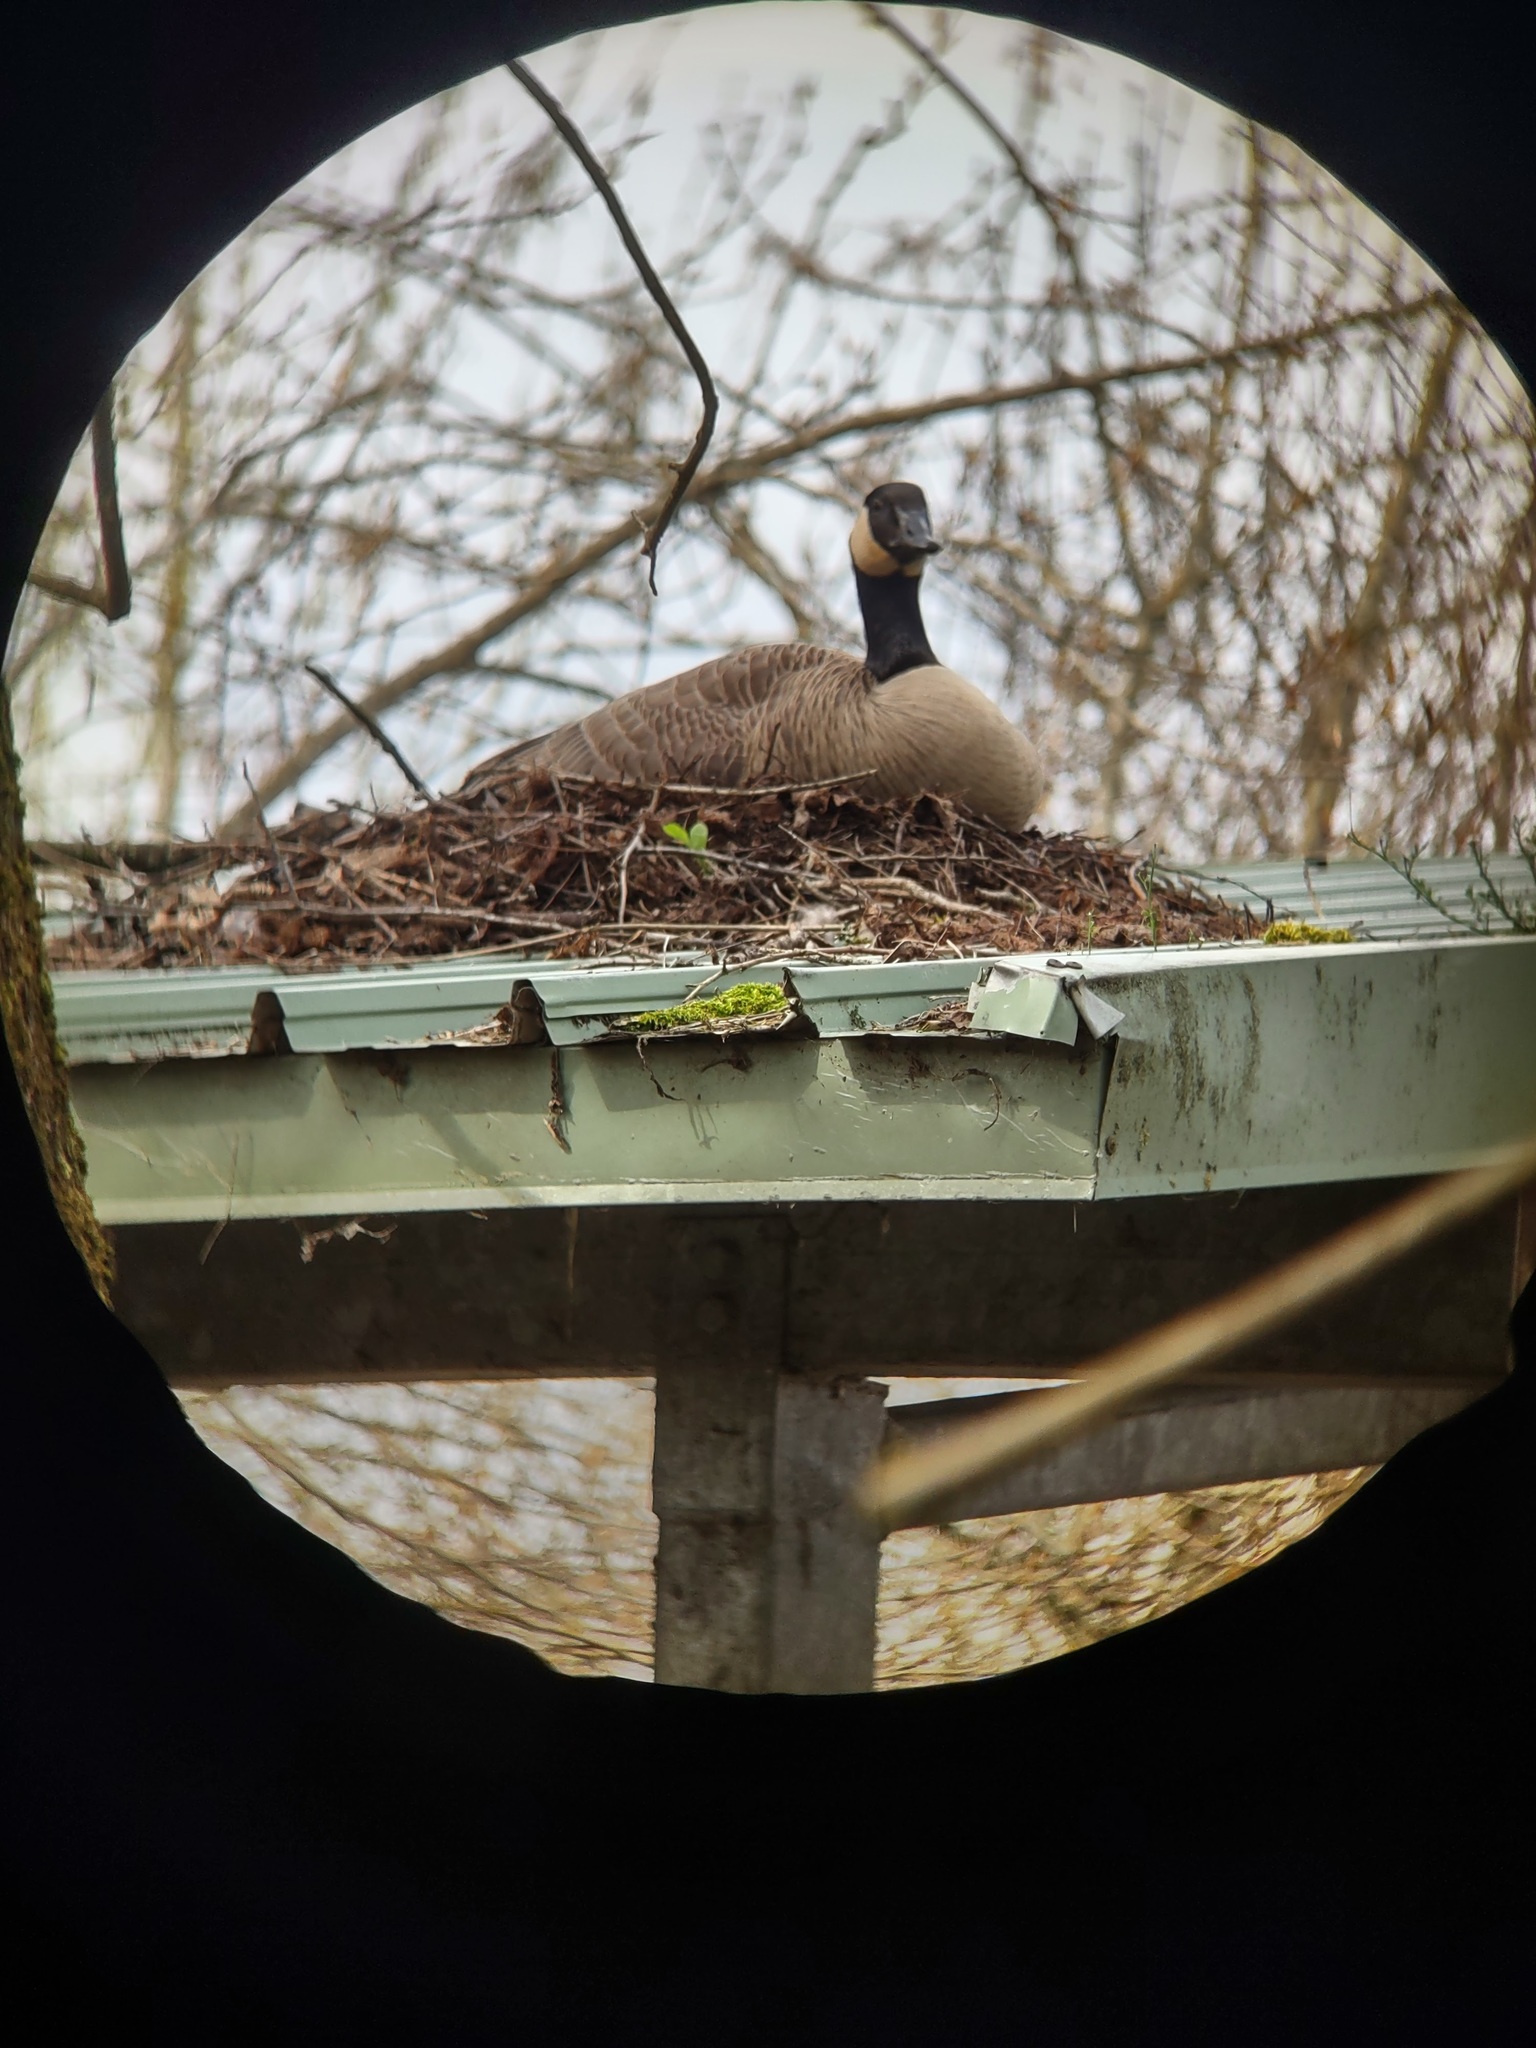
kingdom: Animalia
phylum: Chordata
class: Aves
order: Anseriformes
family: Anatidae
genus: Branta
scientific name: Branta canadensis
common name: Canada goose
